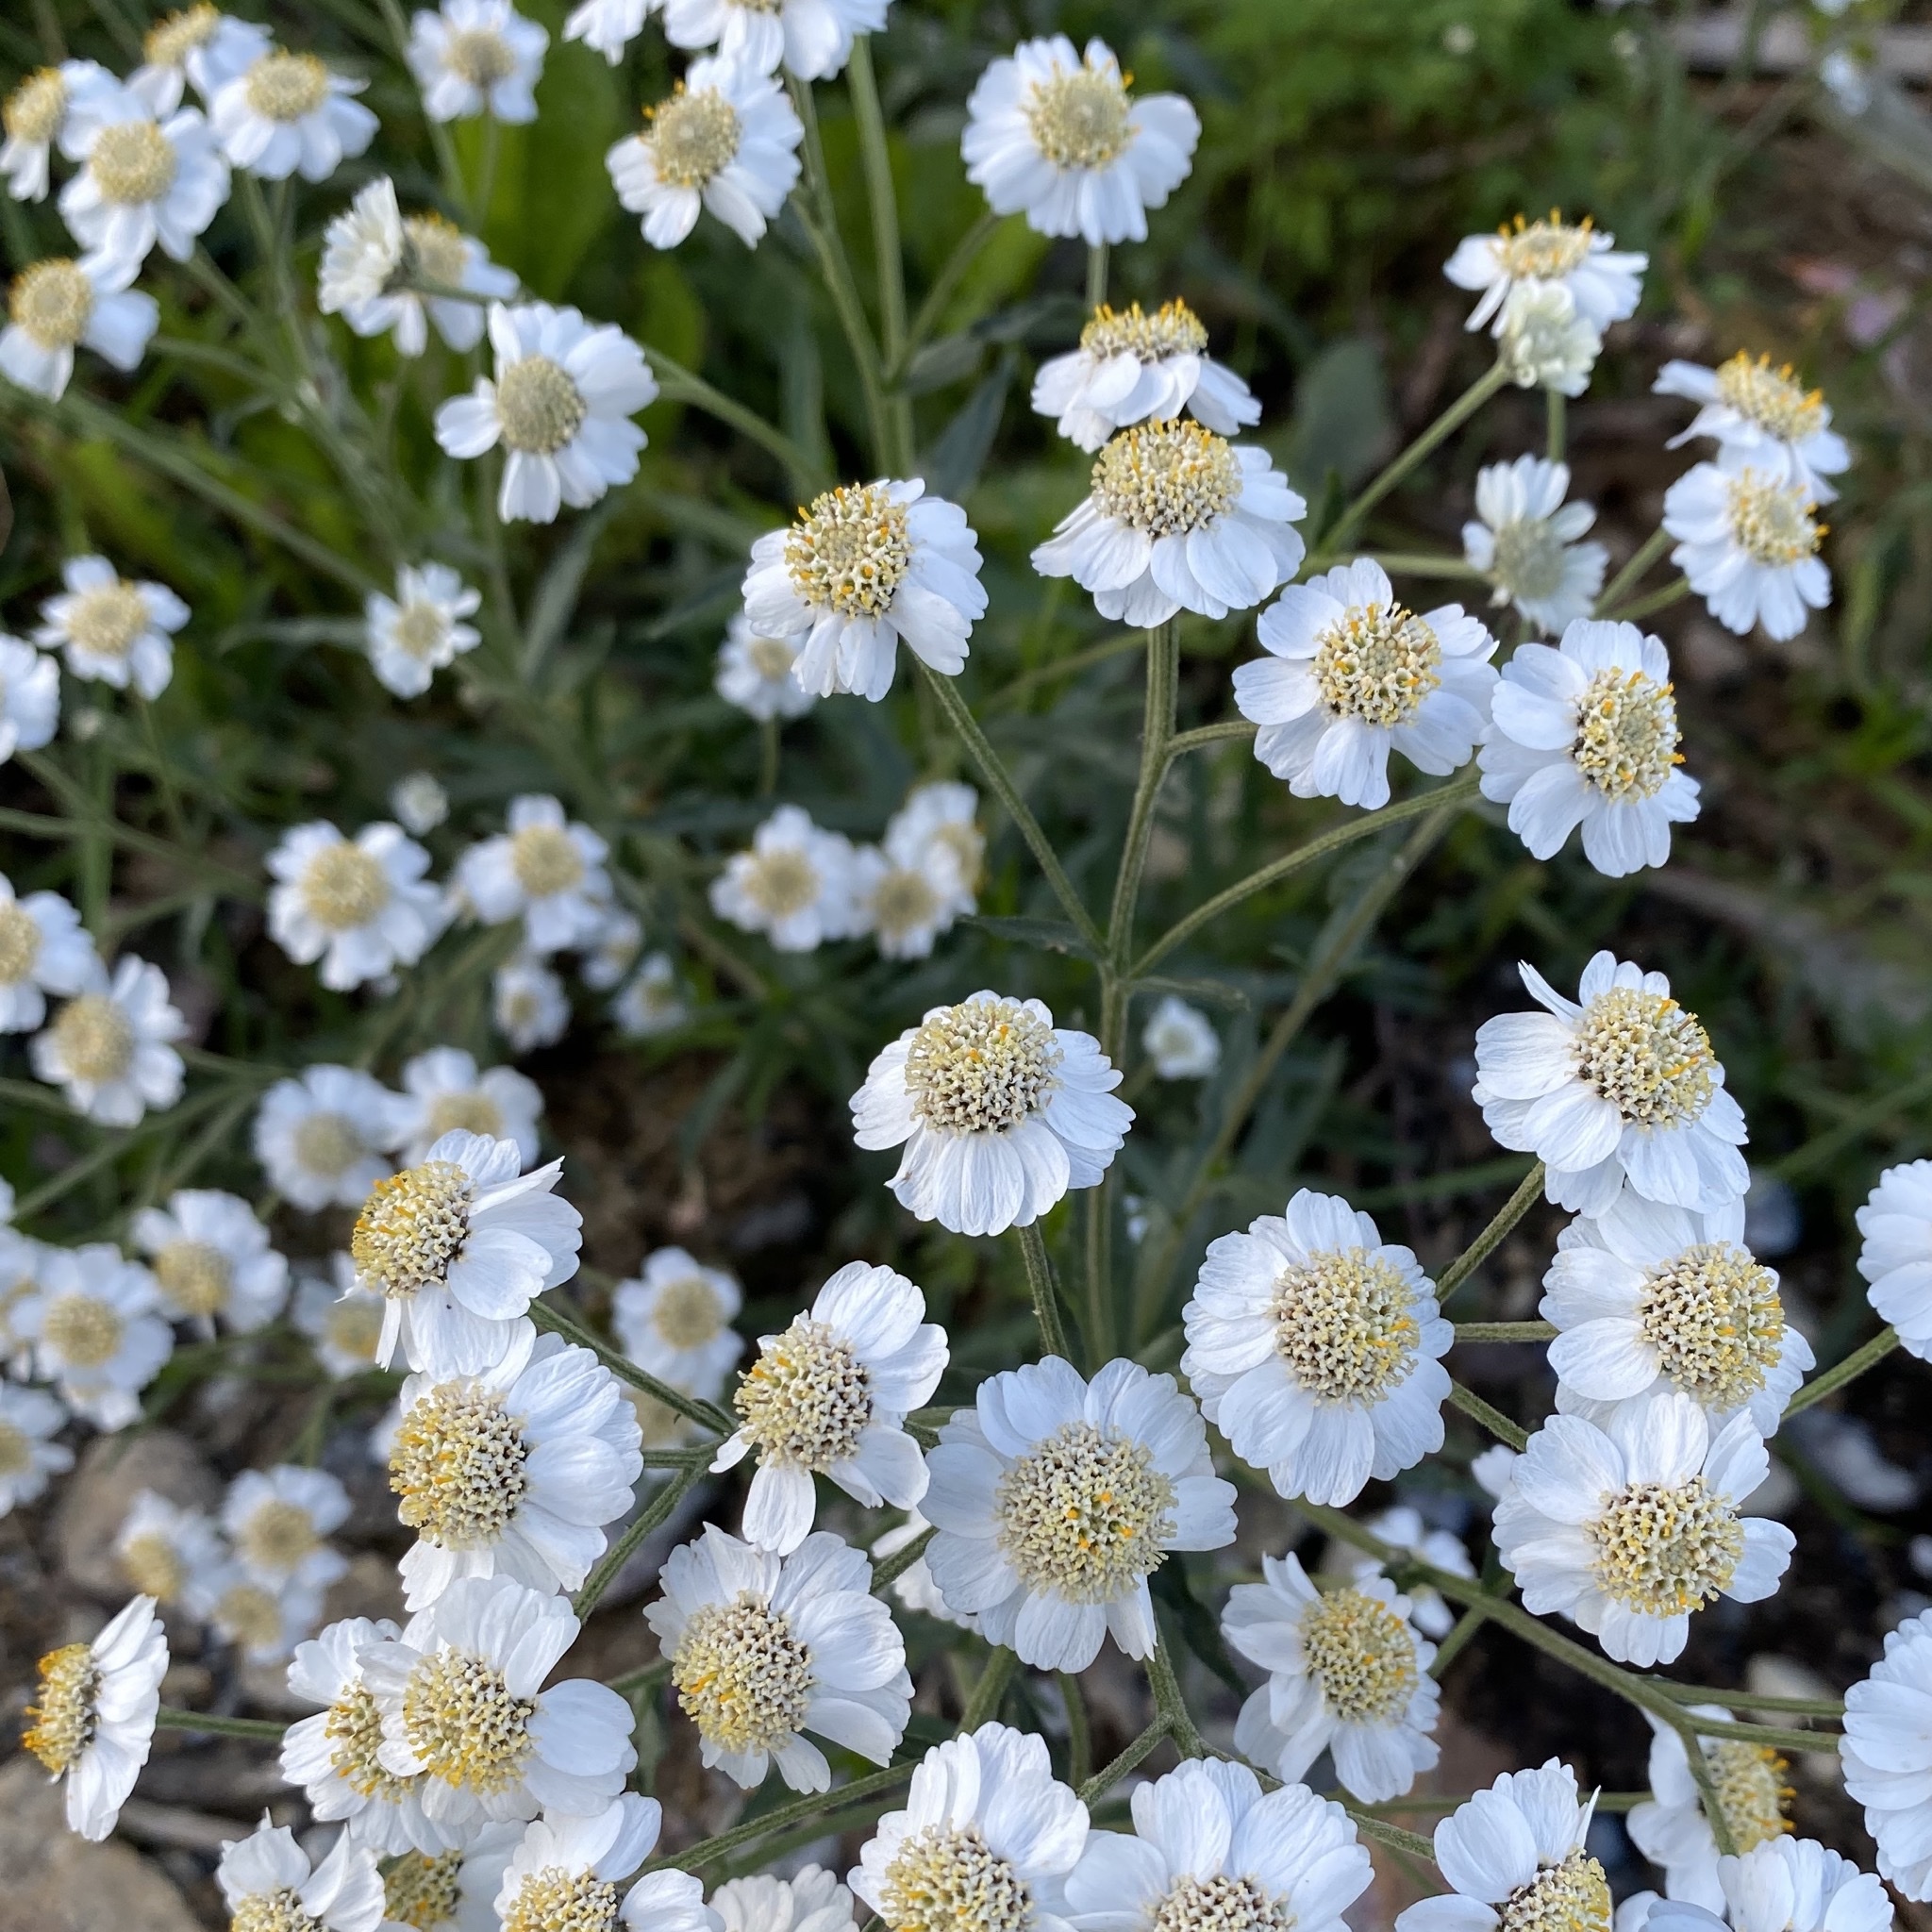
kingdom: Plantae
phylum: Tracheophyta
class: Magnoliopsida
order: Asterales
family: Asteraceae
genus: Achillea
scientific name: Achillea ptarmica
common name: Sneezeweed
